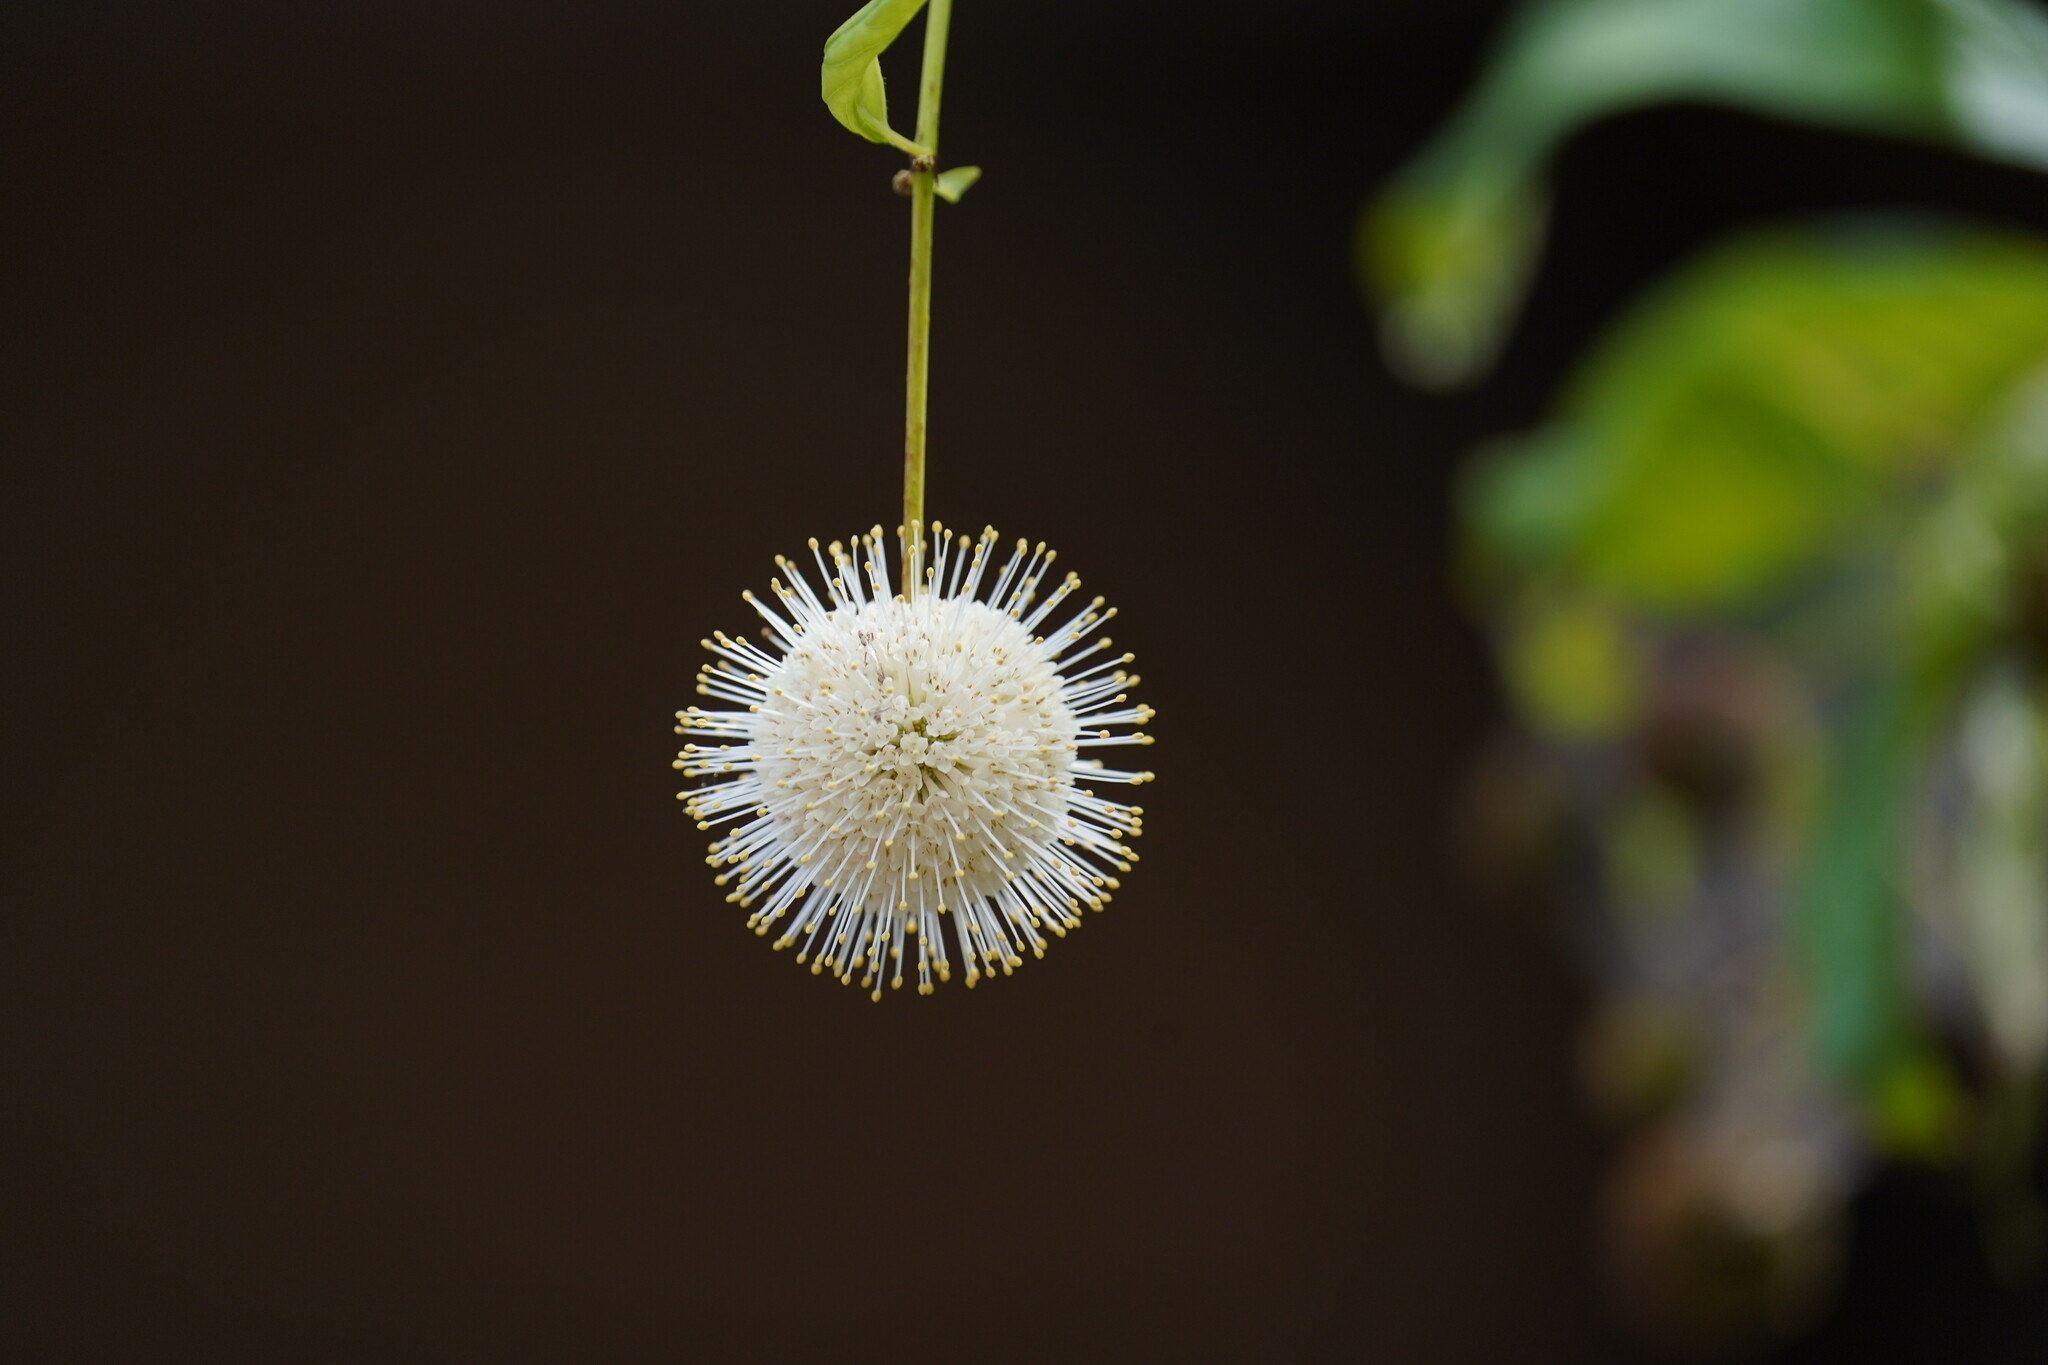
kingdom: Plantae
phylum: Tracheophyta
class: Magnoliopsida
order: Gentianales
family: Rubiaceae
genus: Cephalanthus
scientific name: Cephalanthus occidentalis
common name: Button-willow
